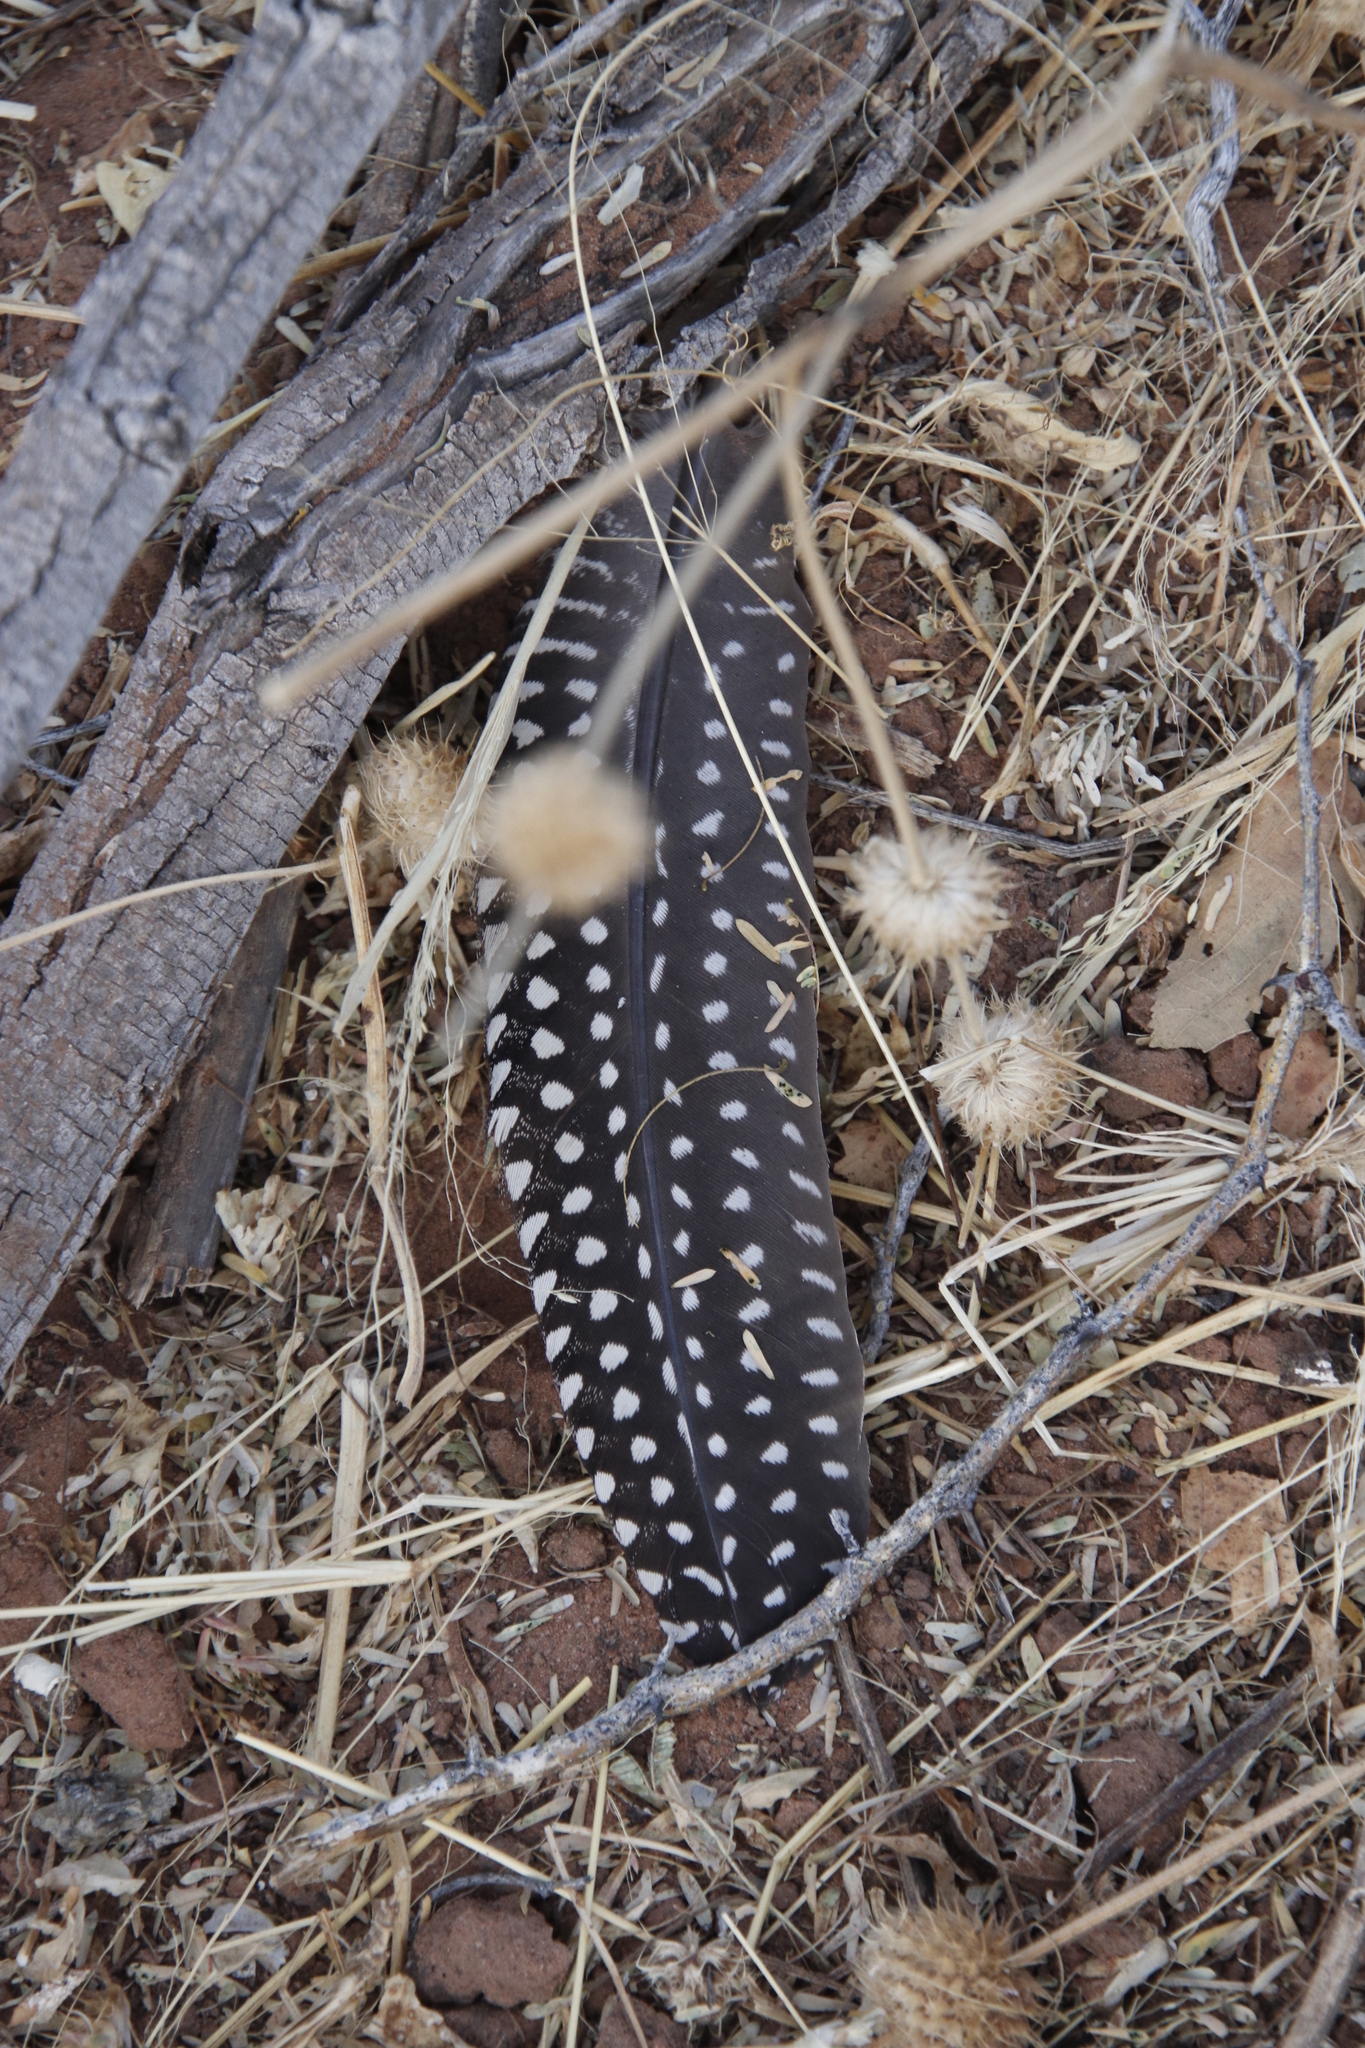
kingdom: Animalia
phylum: Chordata
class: Aves
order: Galliformes
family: Numididae
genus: Numida
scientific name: Numida meleagris
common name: Helmeted guineafowl
